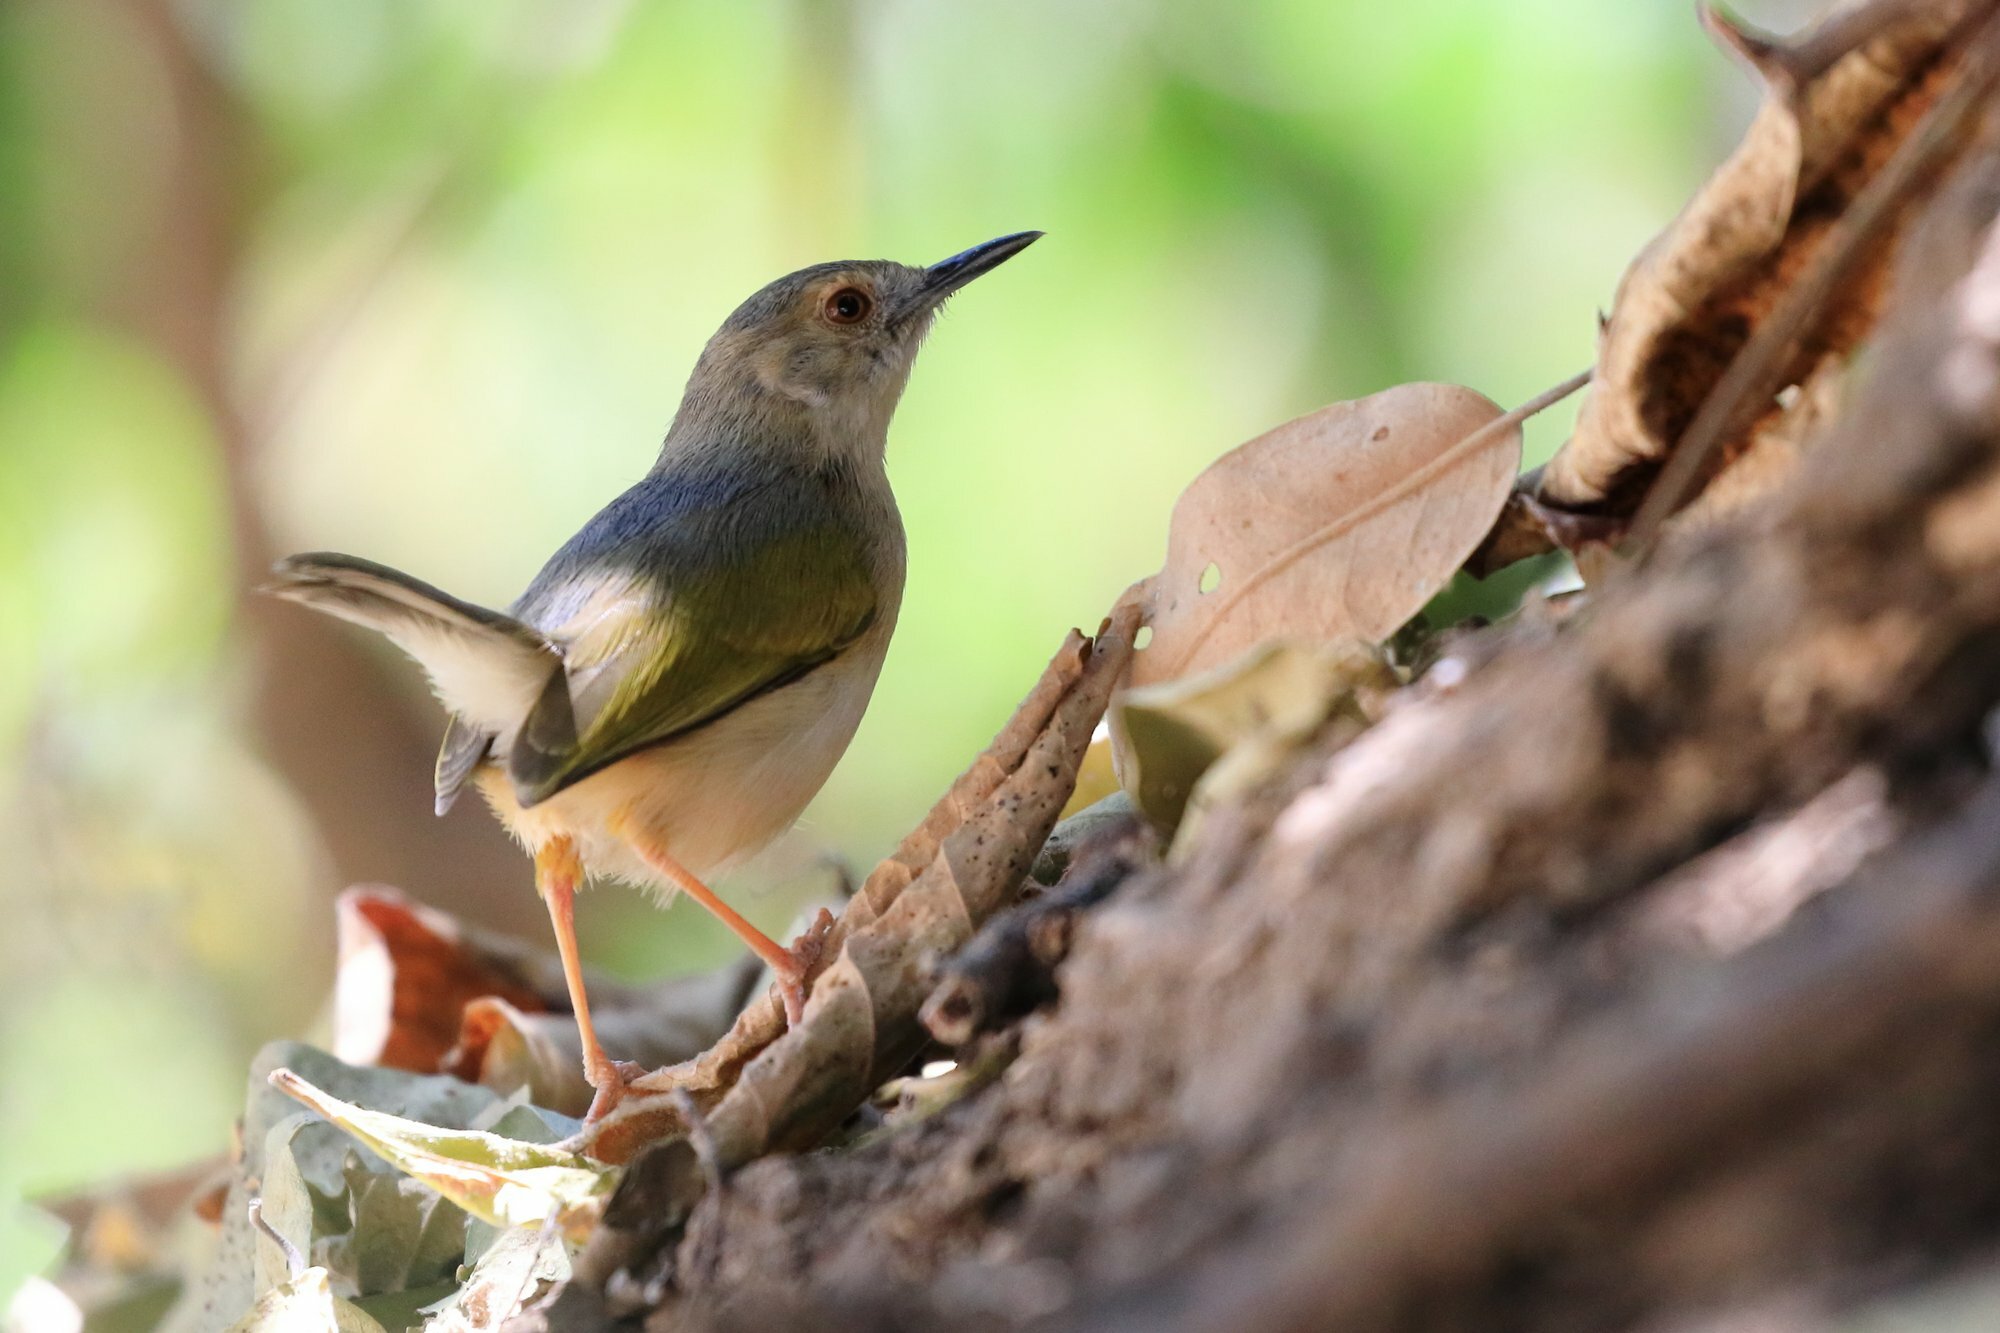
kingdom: Animalia
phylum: Chordata
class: Aves
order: Passeriformes
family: Cisticolidae
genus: Camaroptera
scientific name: Camaroptera brachyura
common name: Green-backed camaroptera
